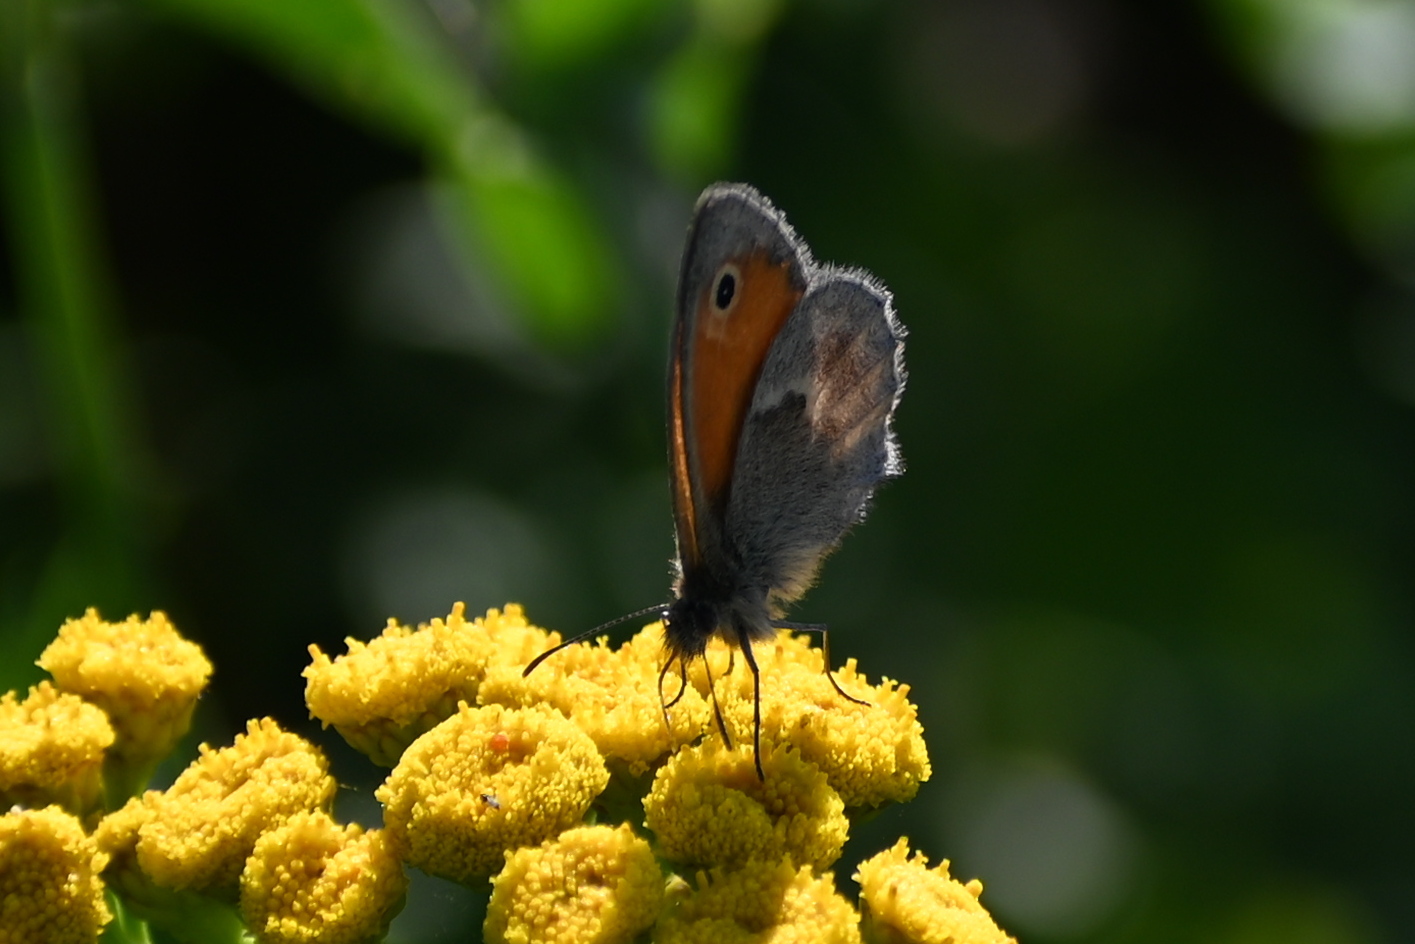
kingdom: Animalia
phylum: Arthropoda
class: Insecta
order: Lepidoptera
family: Nymphalidae
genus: Coenonympha
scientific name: Coenonympha pamphilus
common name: Small heath
